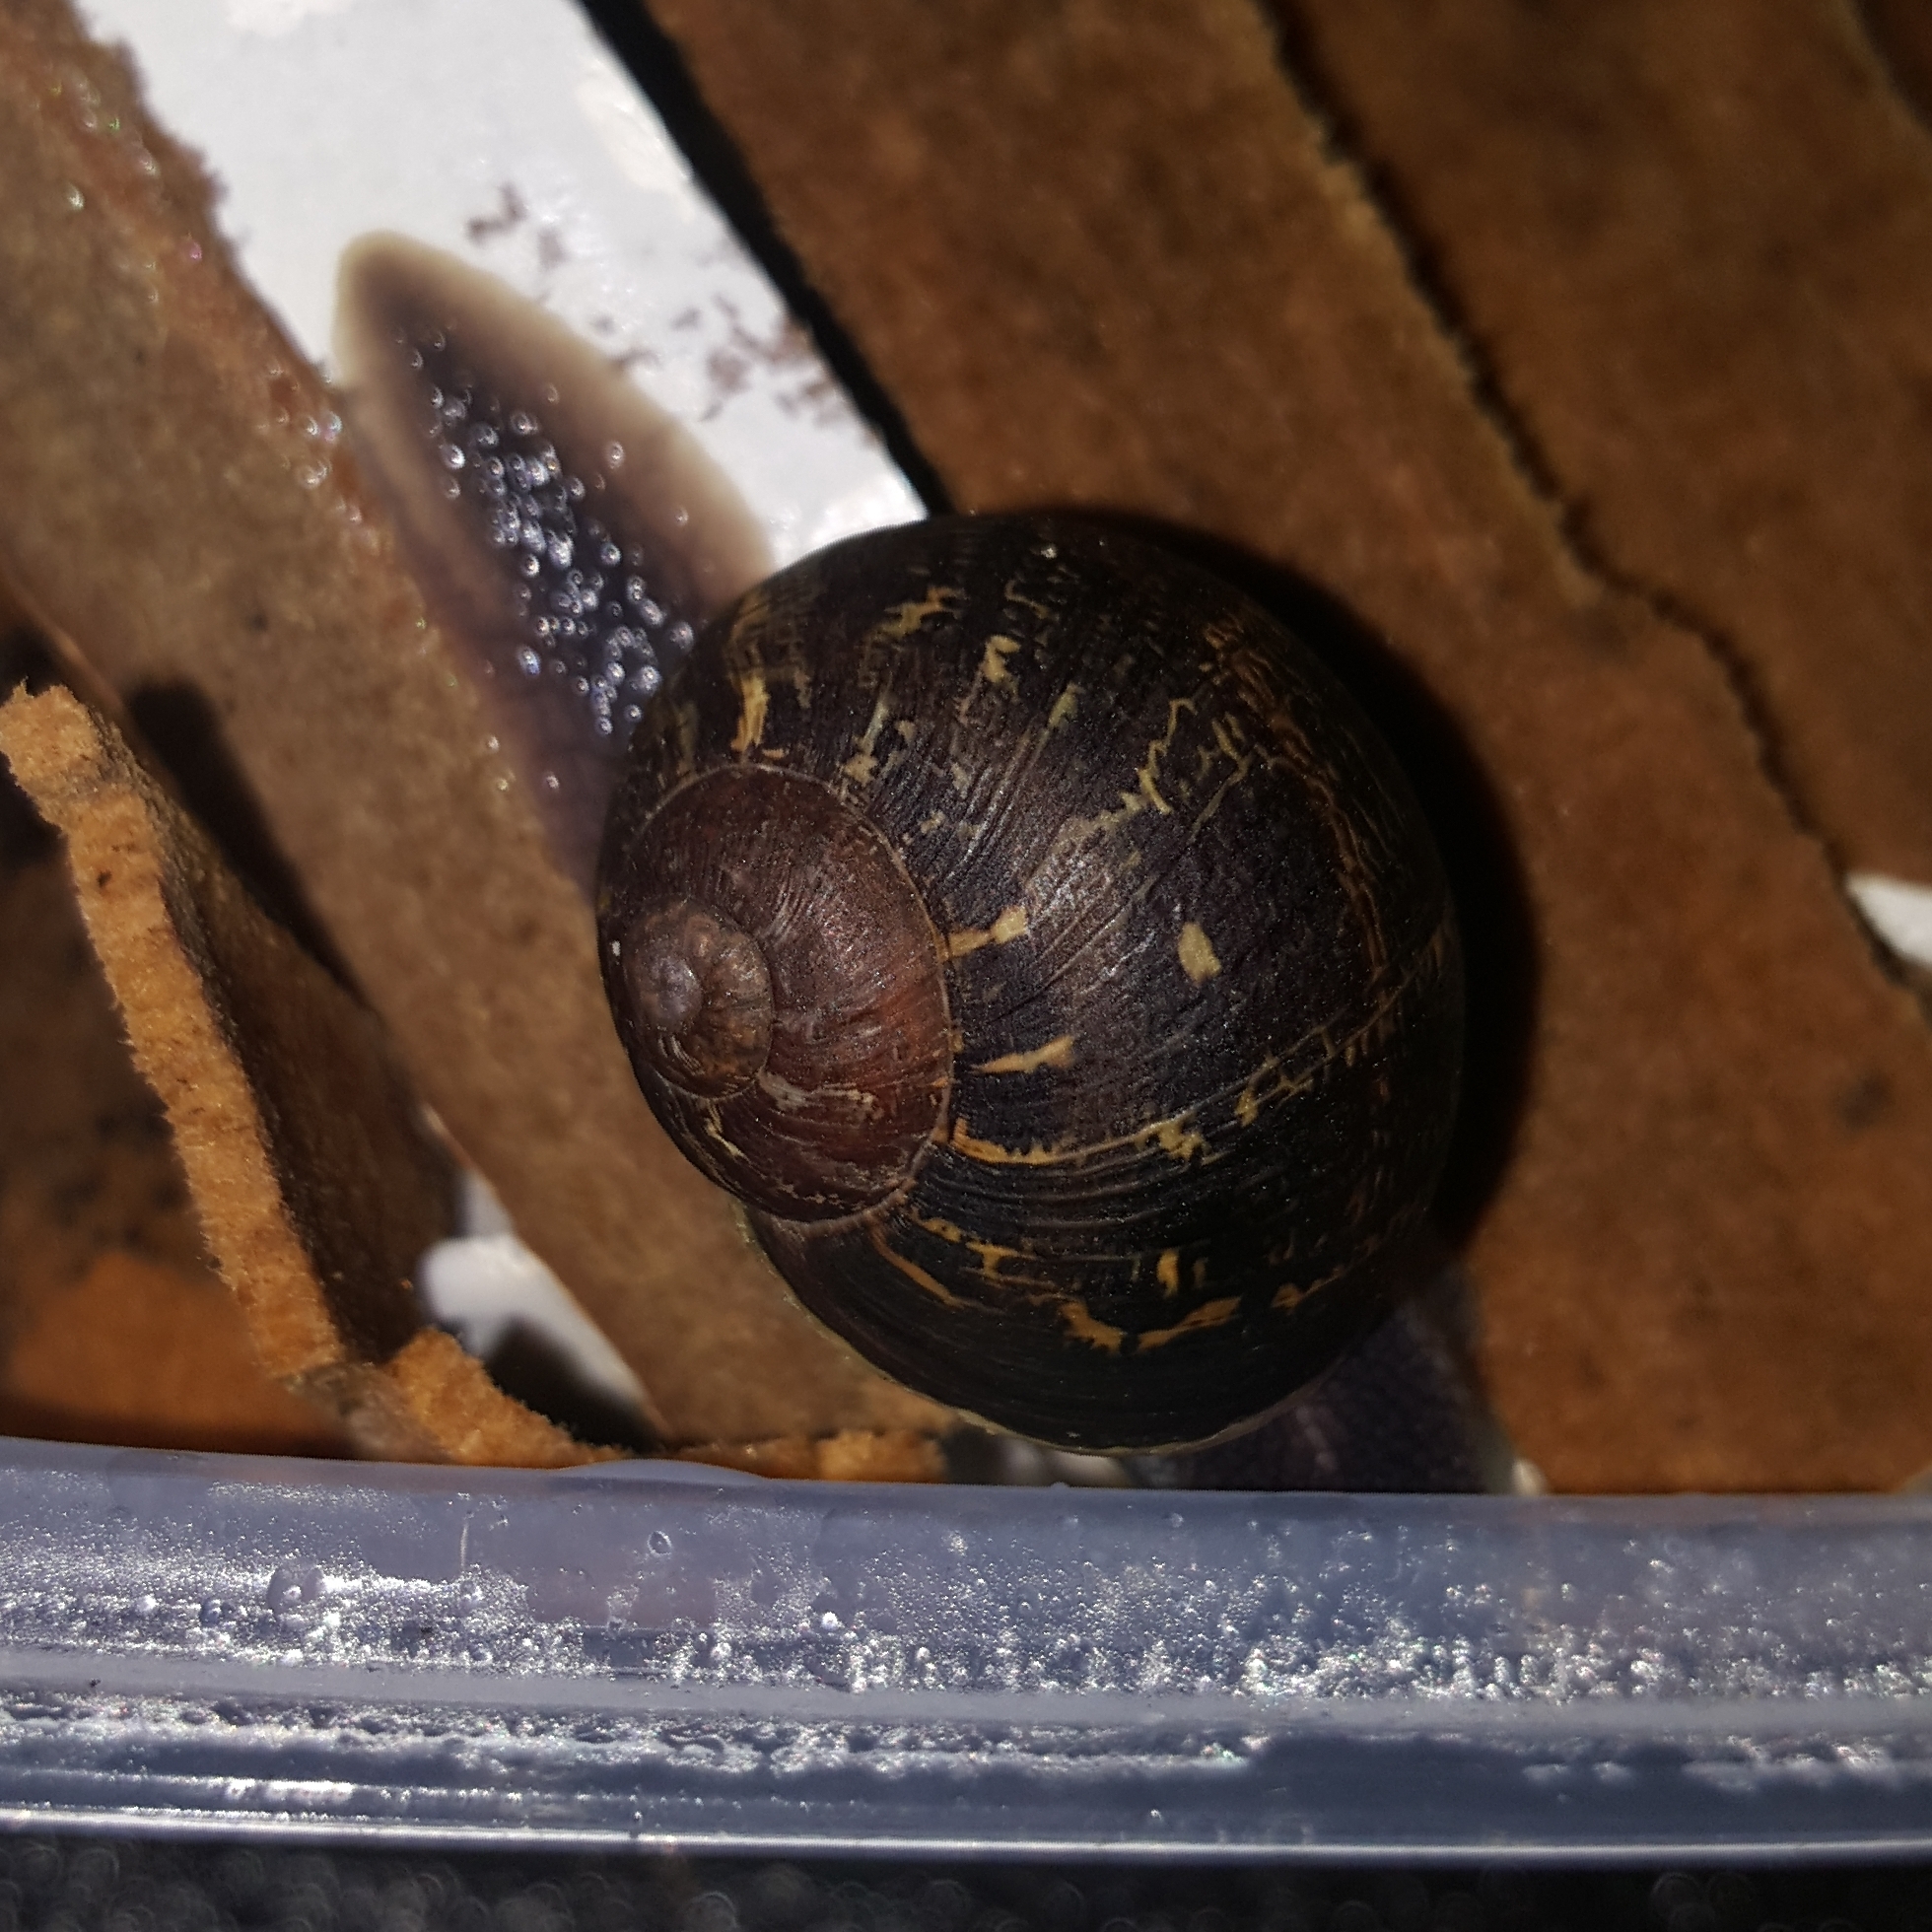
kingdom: Animalia
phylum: Mollusca
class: Gastropoda
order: Stylommatophora
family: Helicidae
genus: Cornu
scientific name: Cornu aspersum
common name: Brown garden snail
